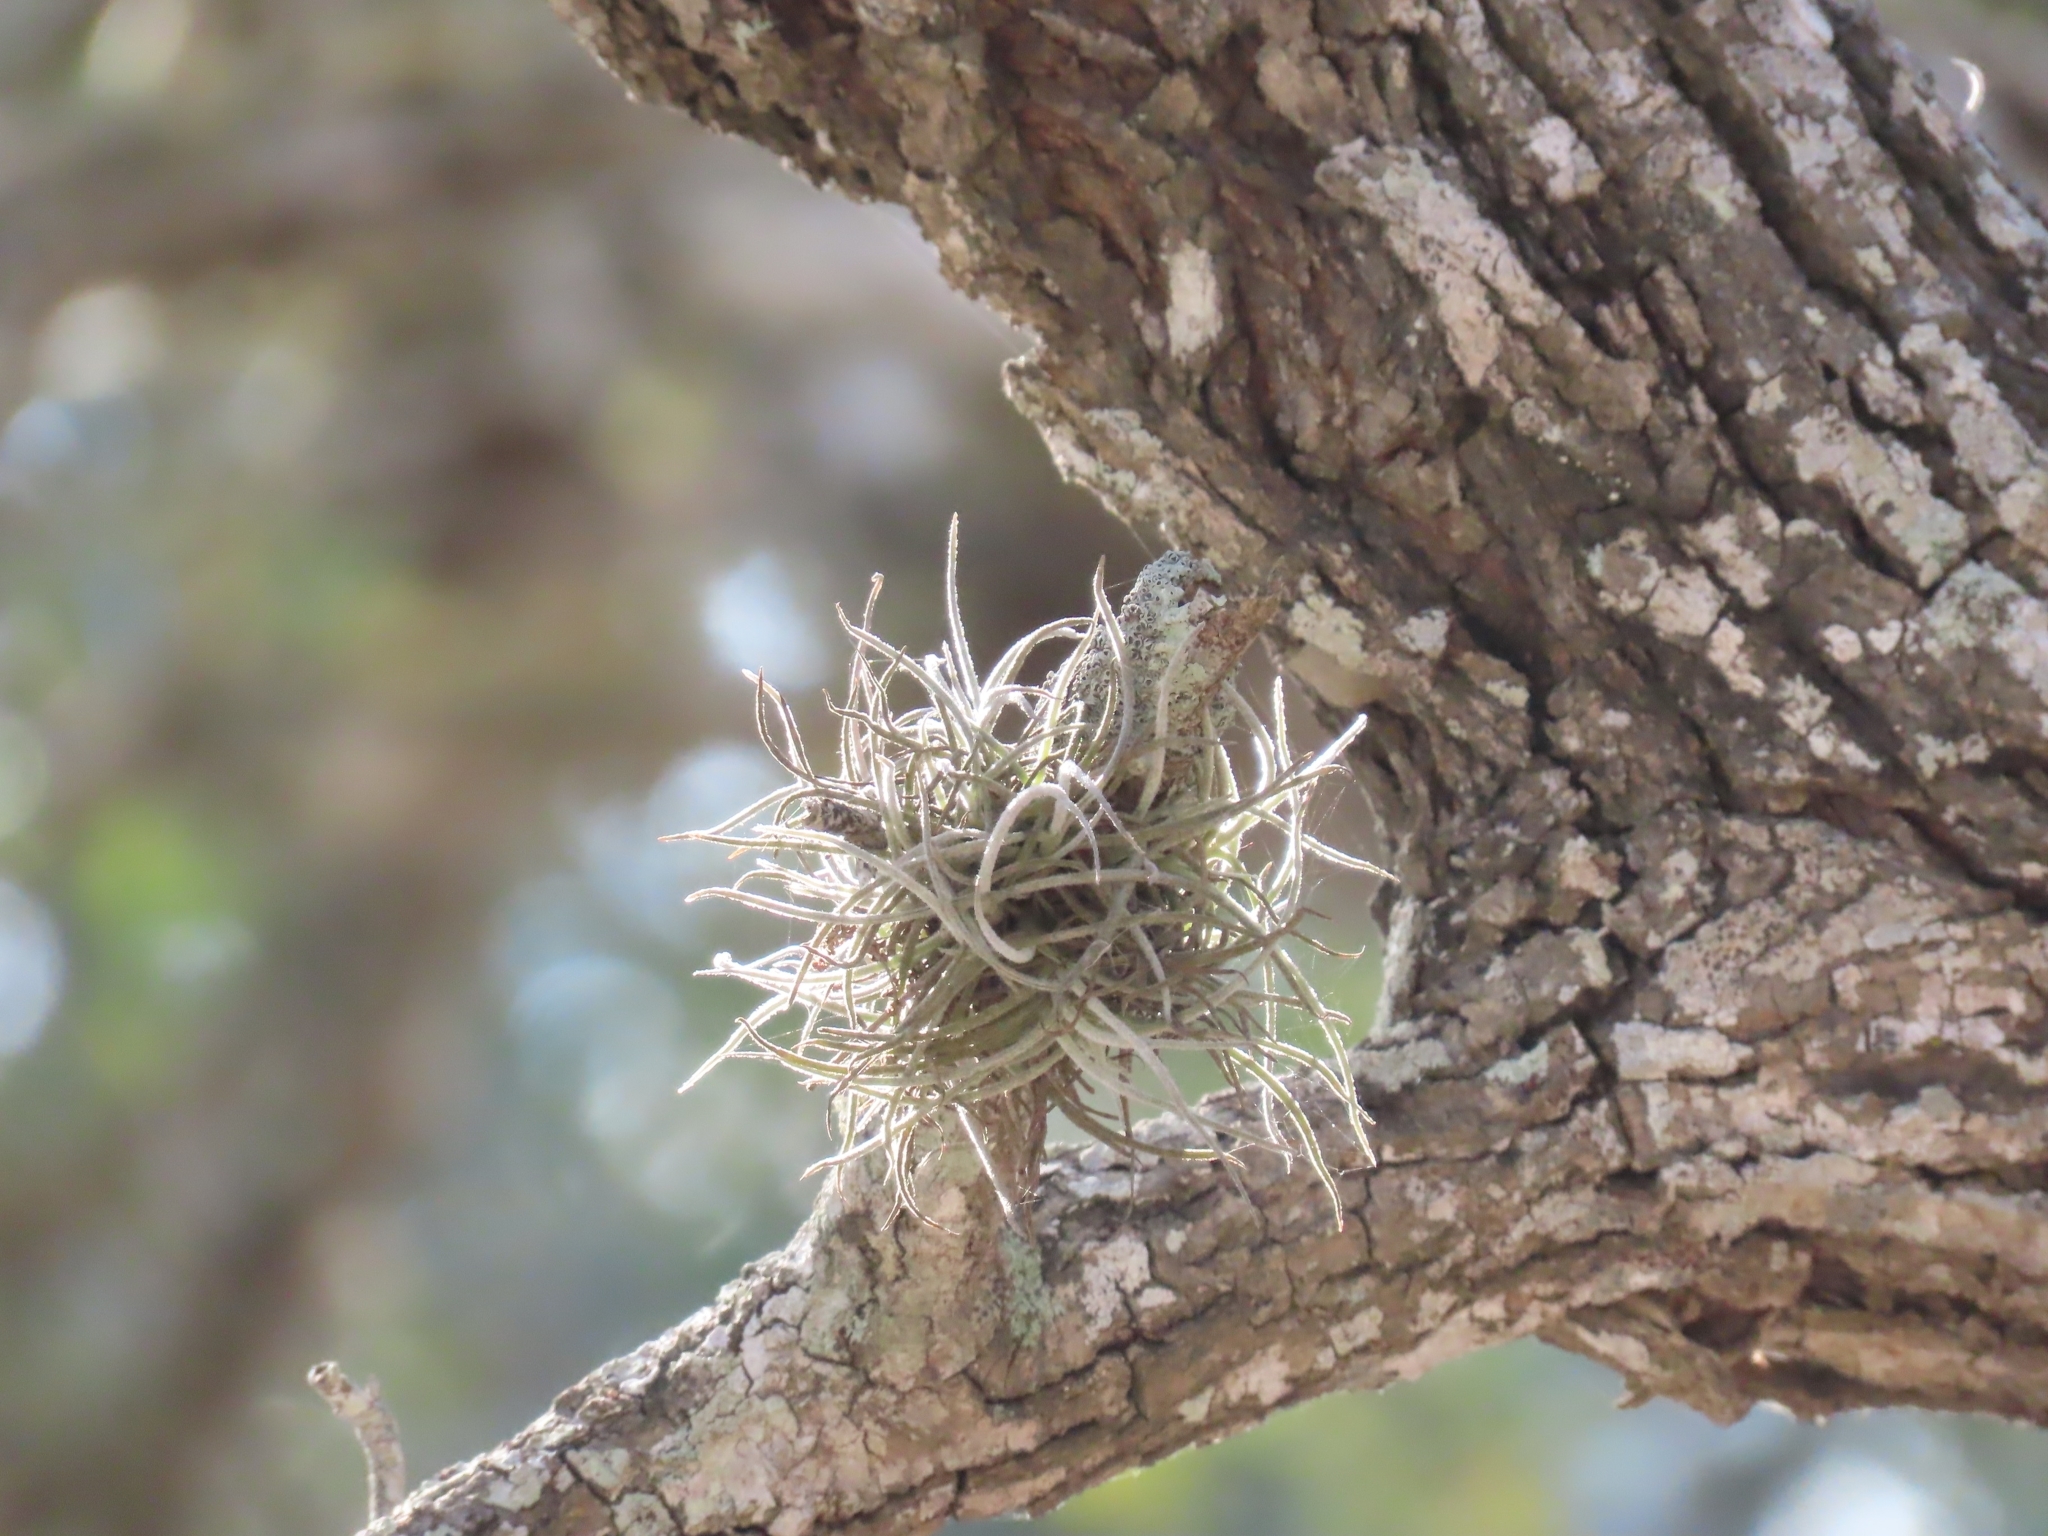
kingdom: Plantae
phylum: Tracheophyta
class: Liliopsida
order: Poales
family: Bromeliaceae
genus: Tillandsia
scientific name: Tillandsia recurvata
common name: Small ballmoss
